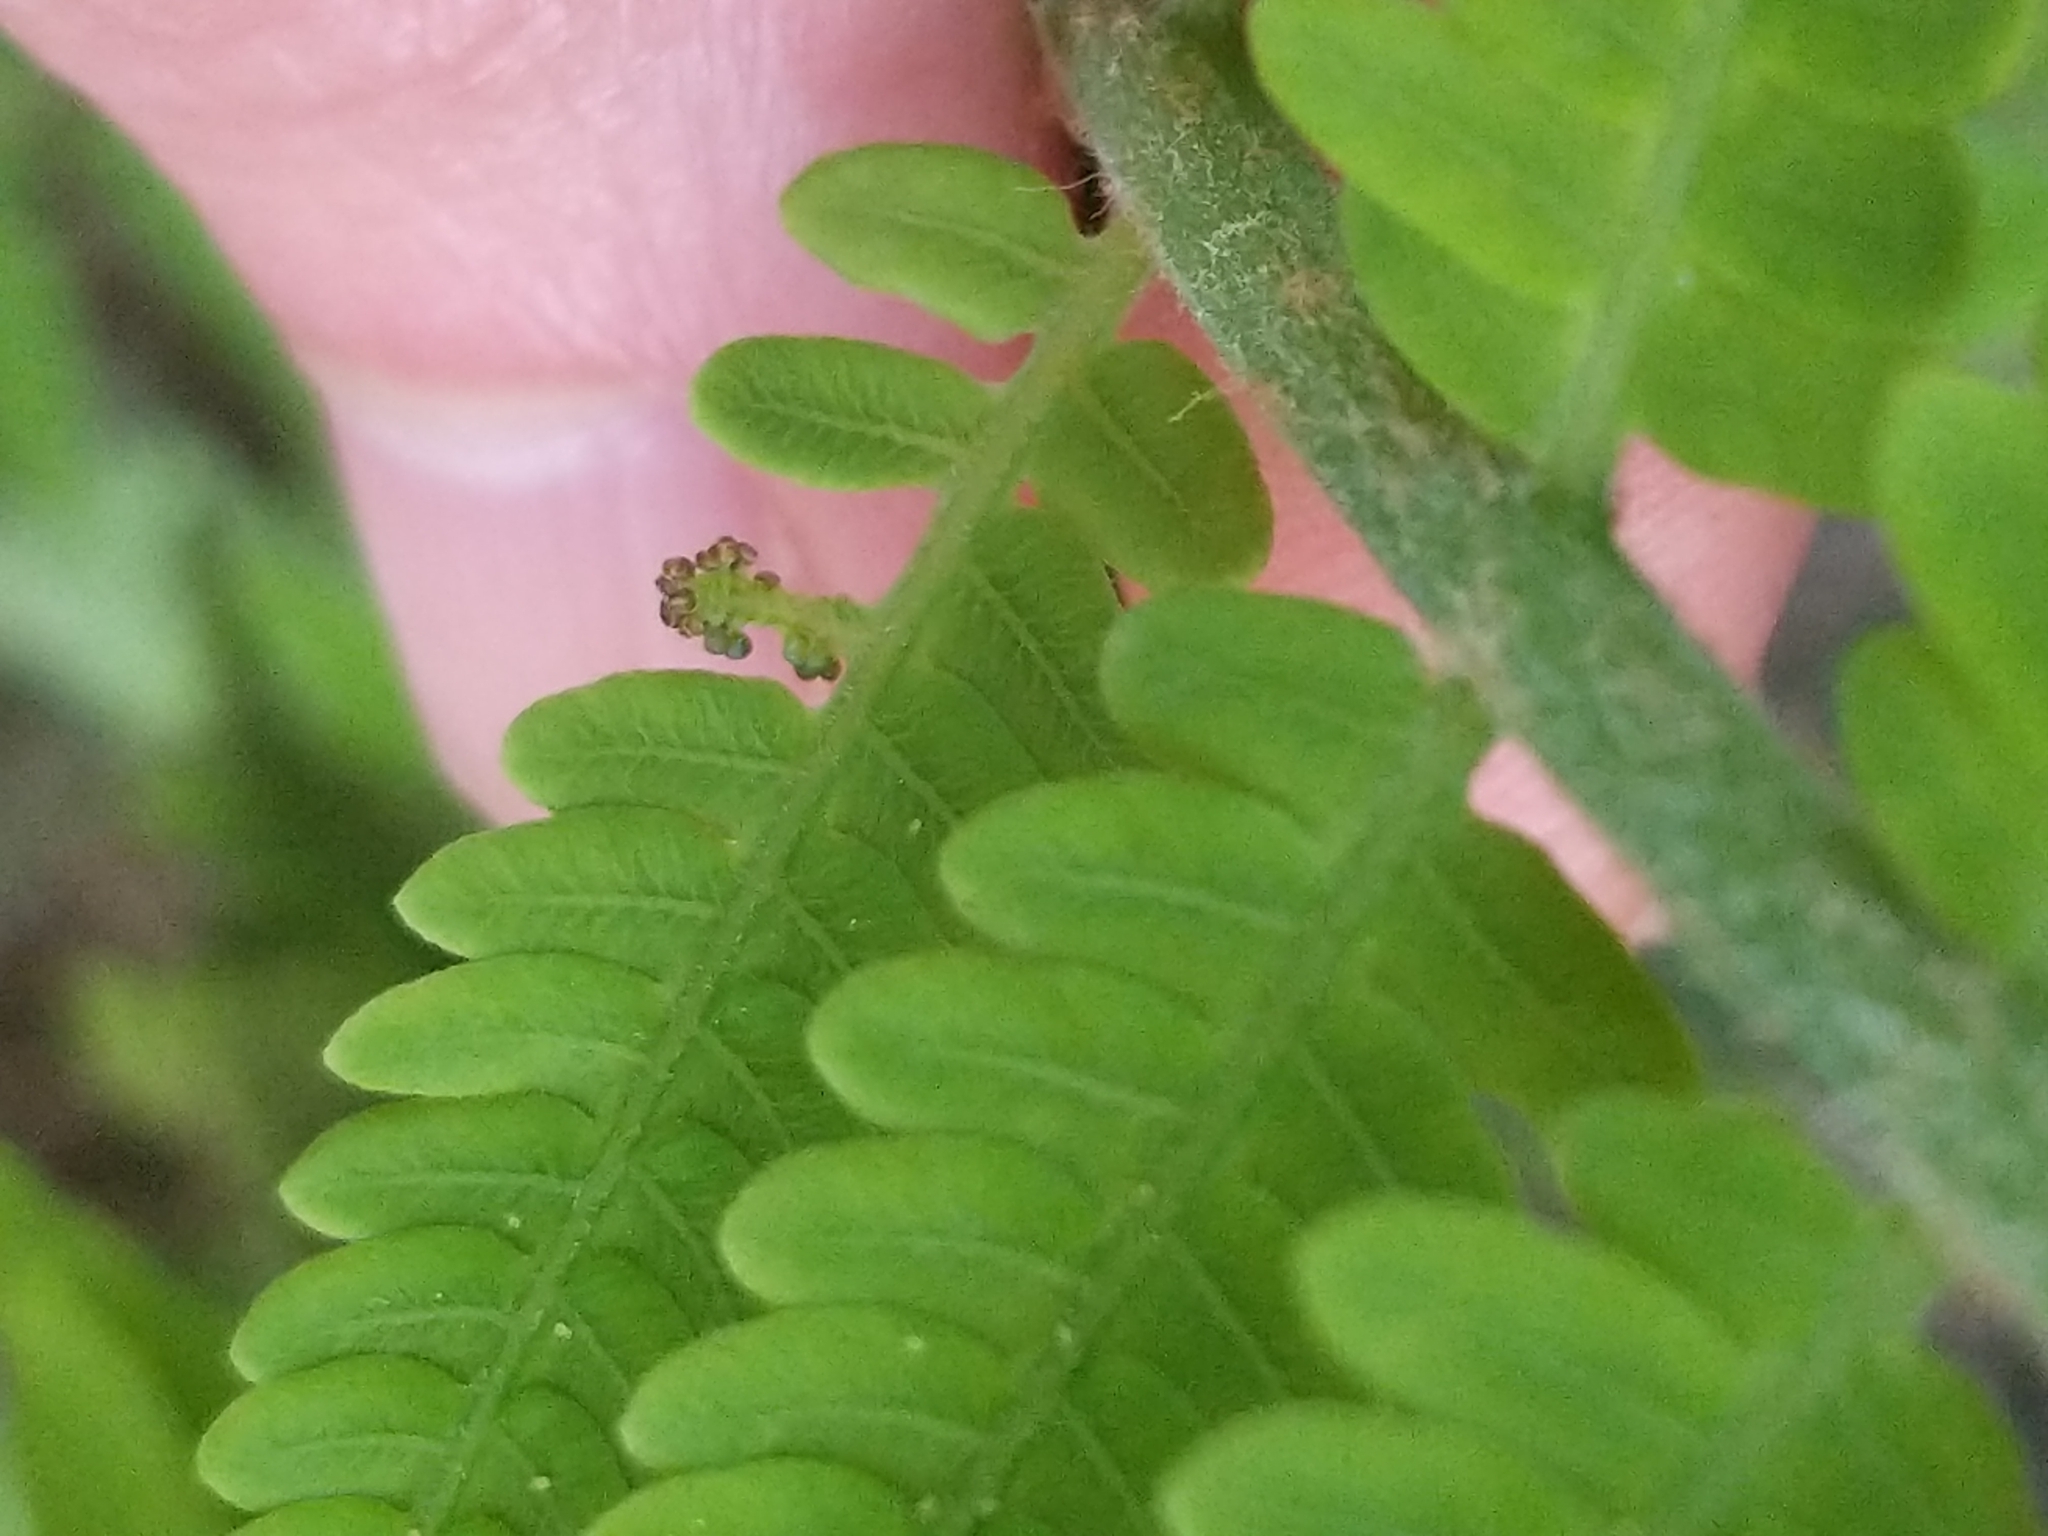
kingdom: Plantae
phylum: Tracheophyta
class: Polypodiopsida
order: Osmundales
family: Osmundaceae
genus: Claytosmunda
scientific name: Claytosmunda claytoniana
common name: Clayton's fern
